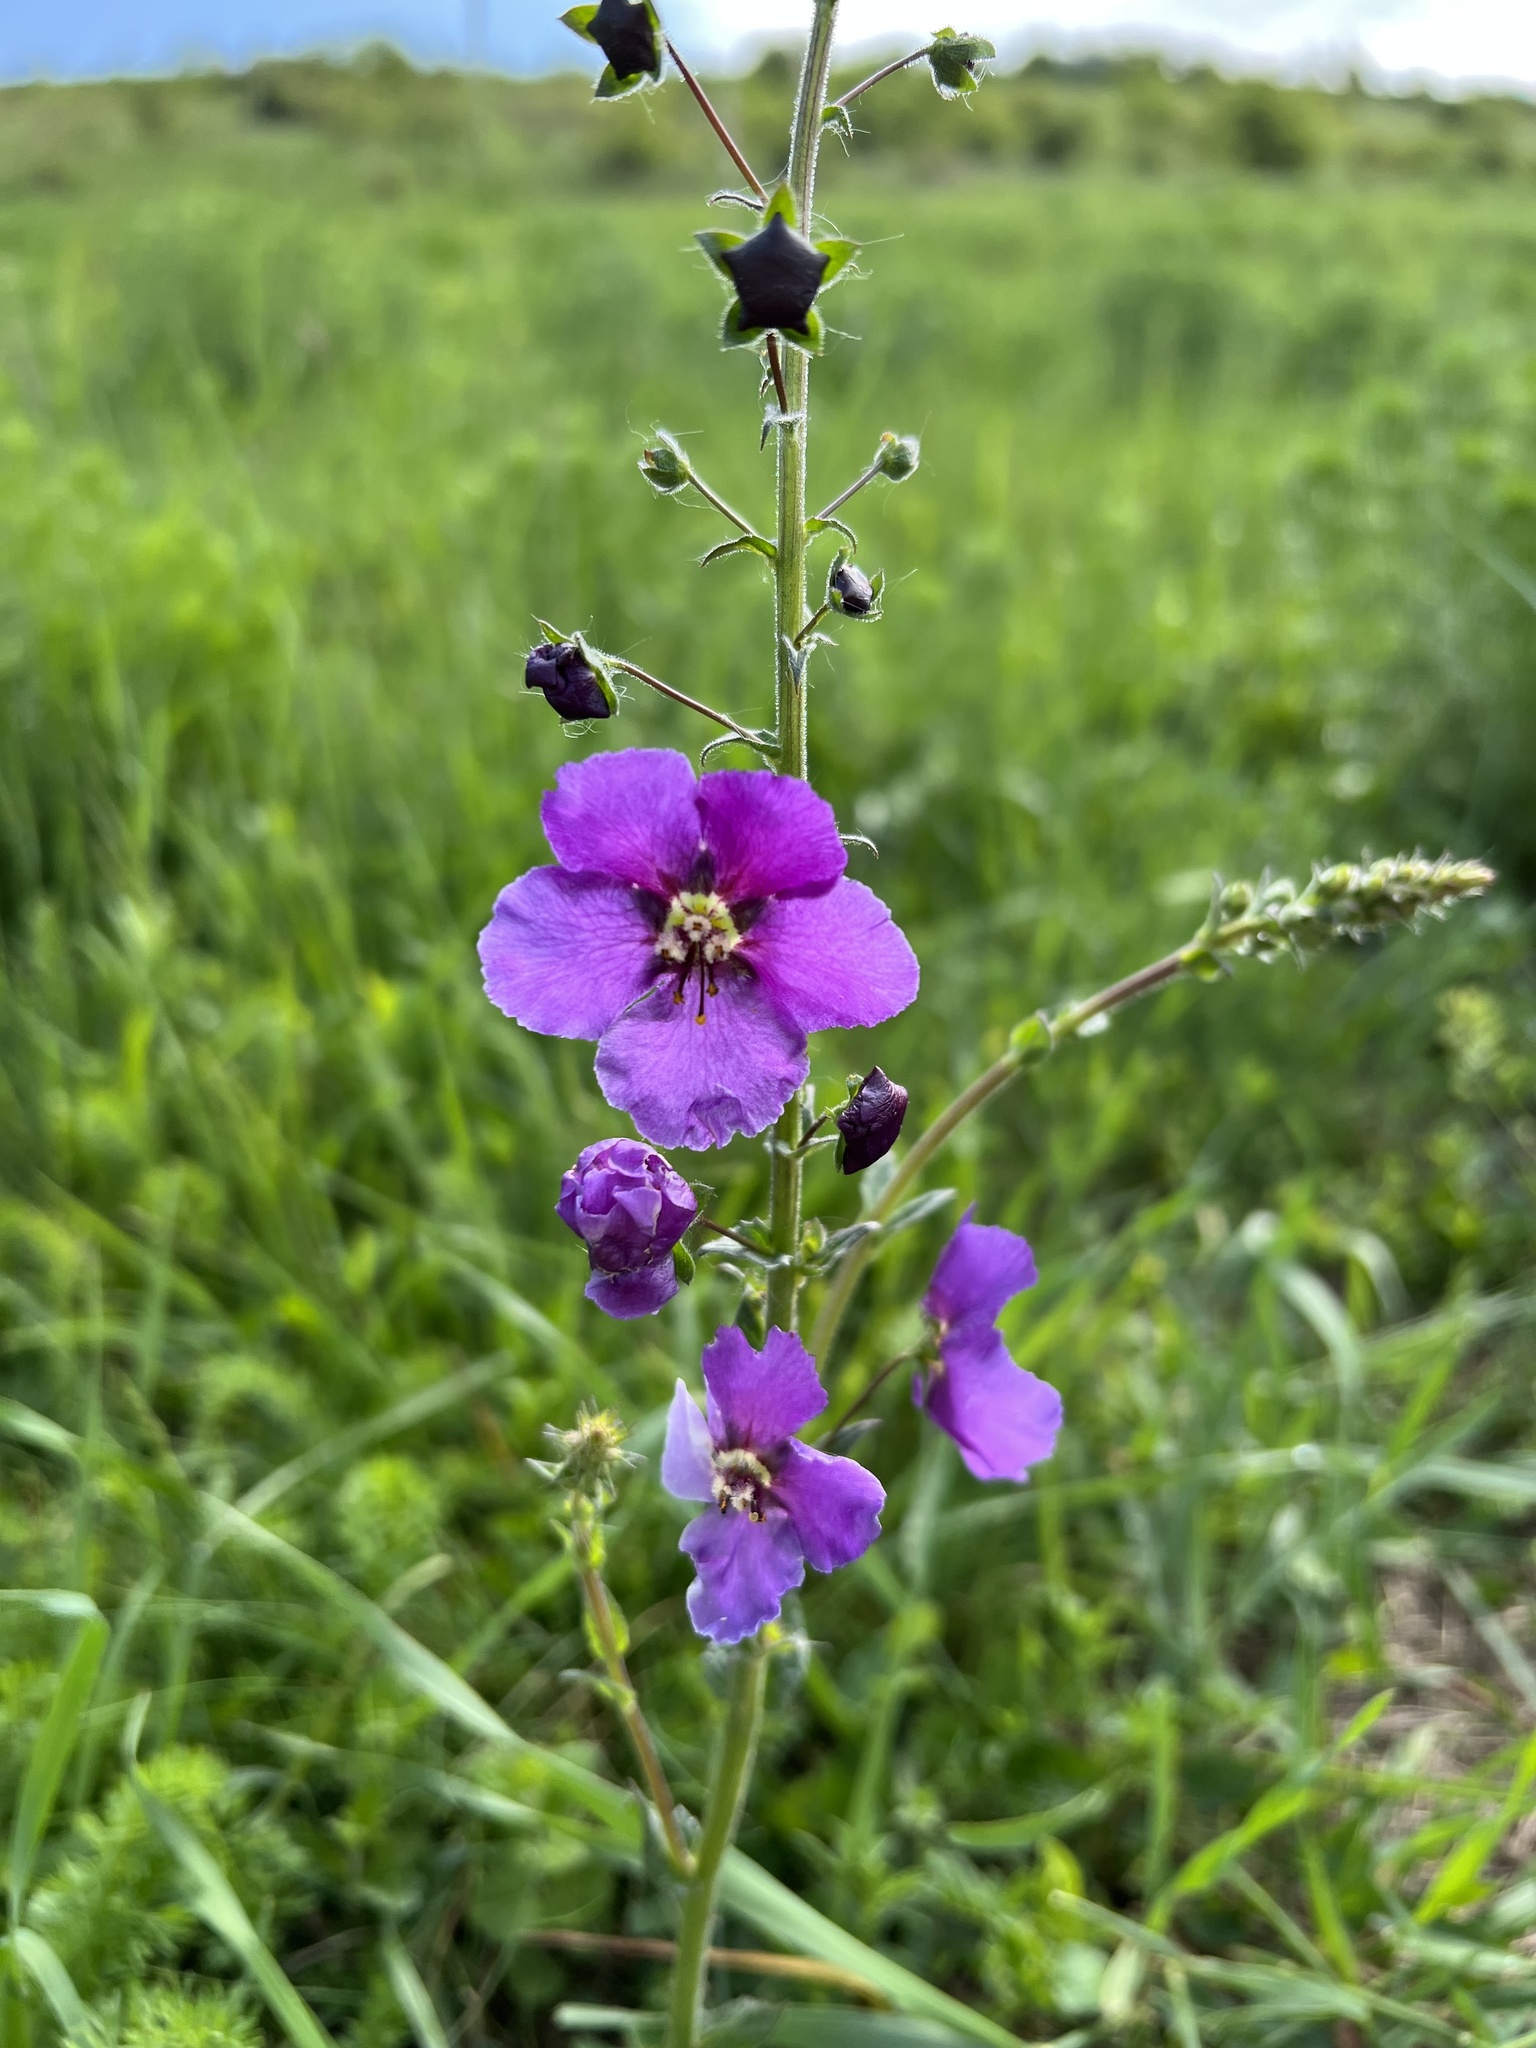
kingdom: Plantae
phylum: Tracheophyta
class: Magnoliopsida
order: Lamiales
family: Scrophulariaceae
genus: Verbascum
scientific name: Verbascum phoeniceum
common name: Purple mullein
